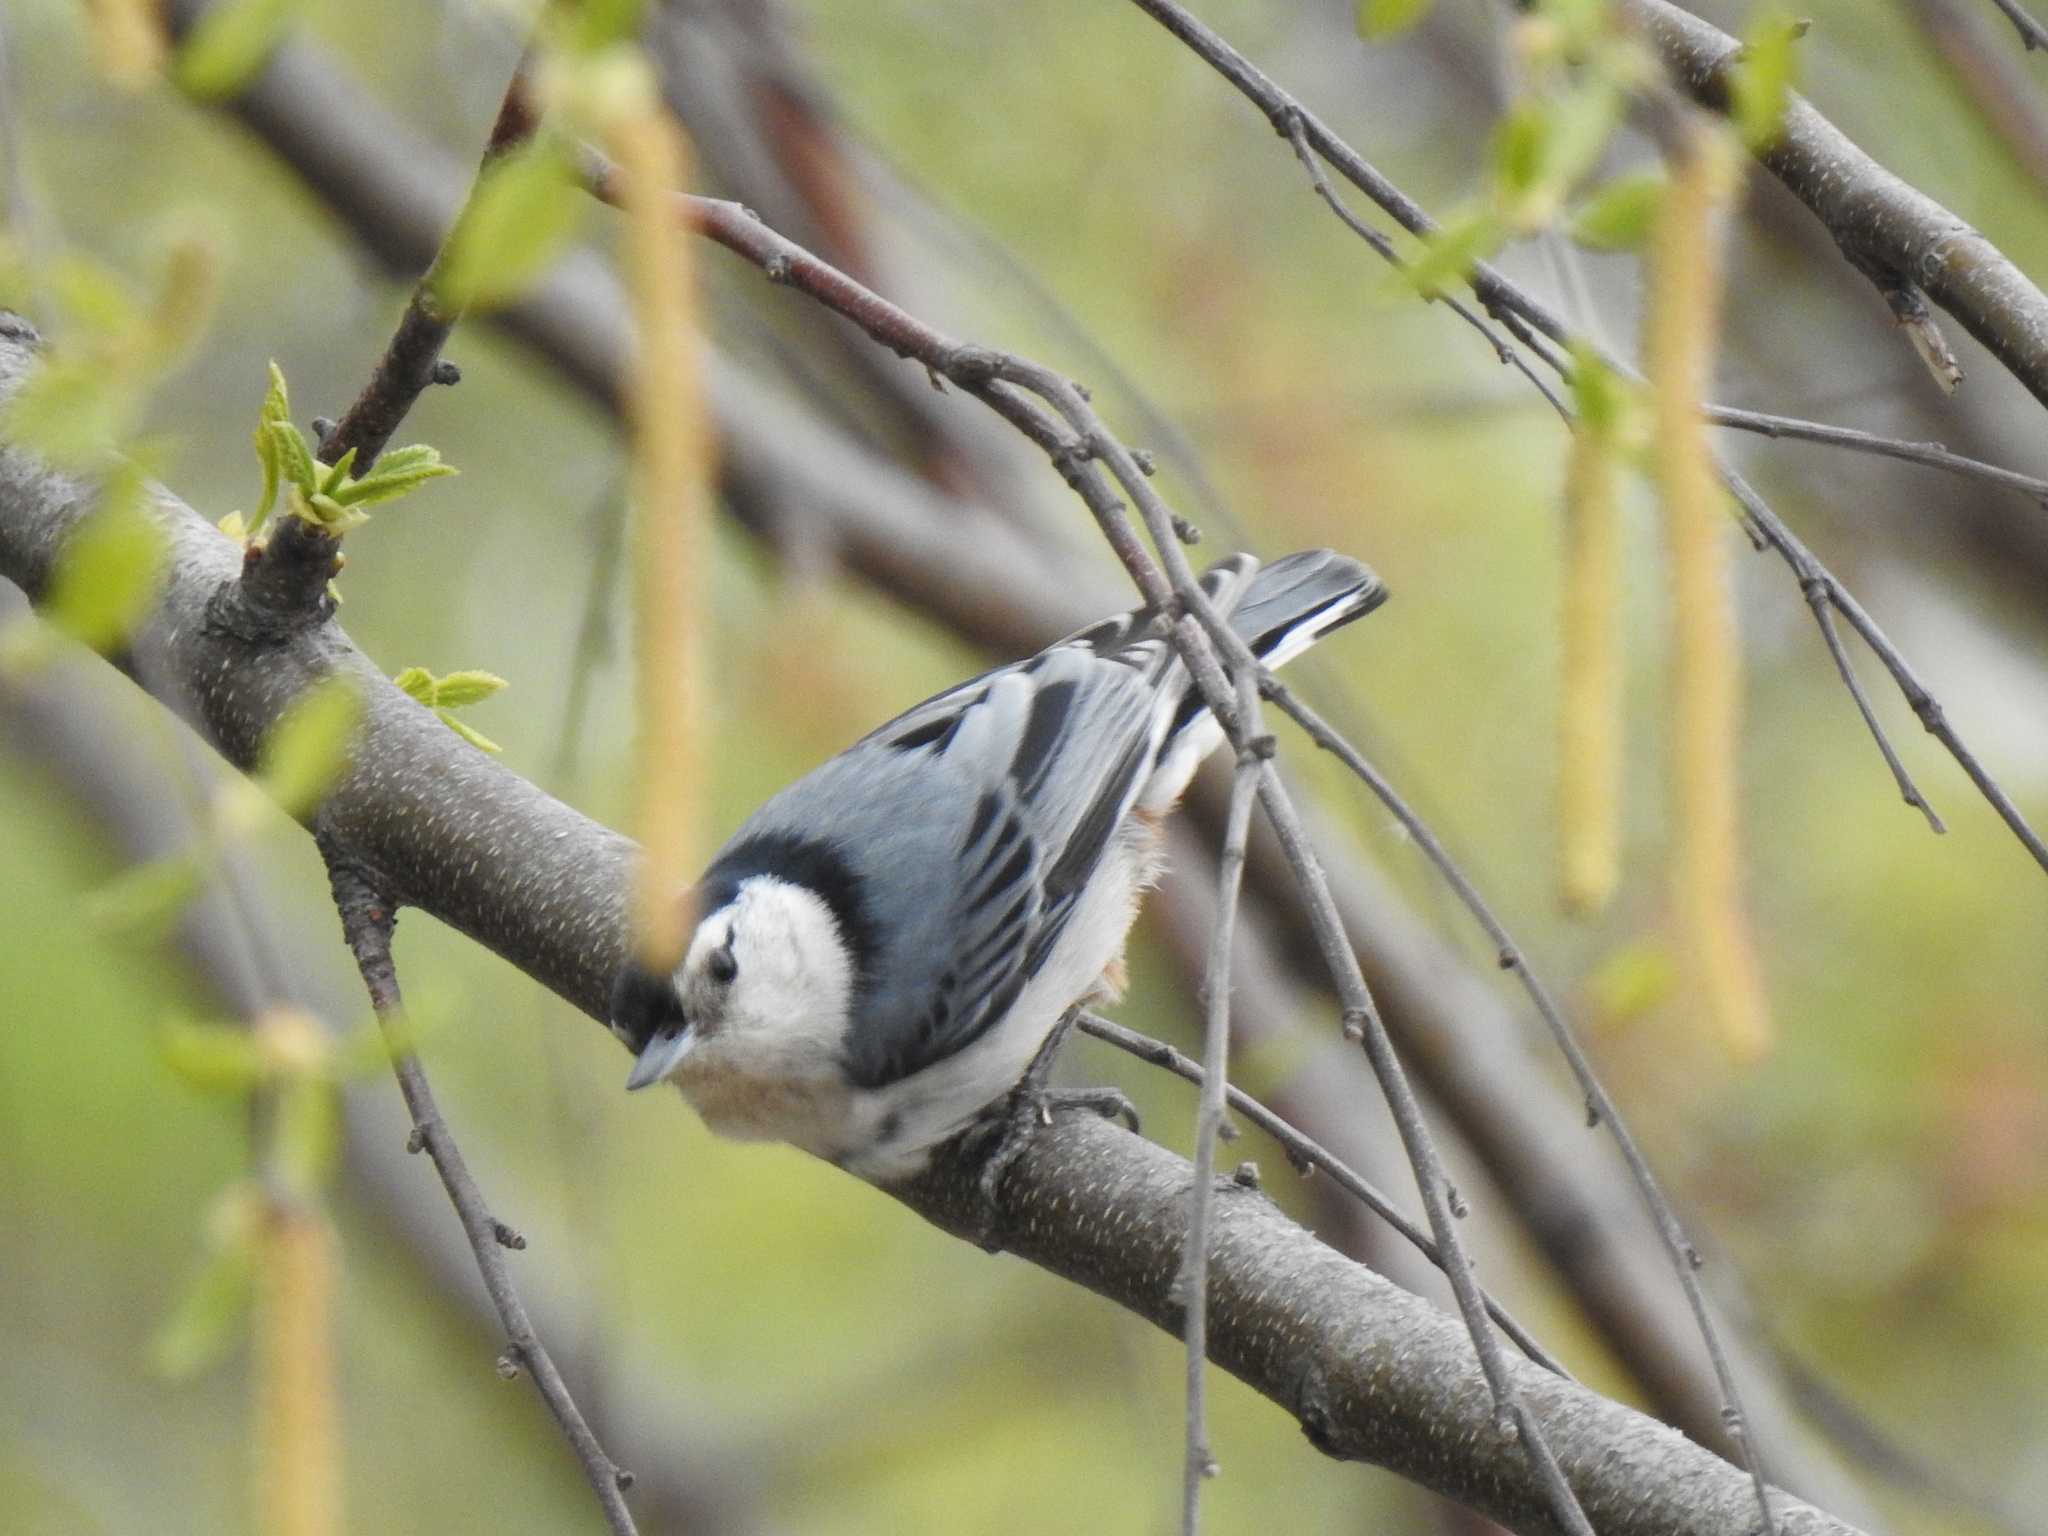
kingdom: Animalia
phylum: Chordata
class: Aves
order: Passeriformes
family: Sittidae
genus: Sitta
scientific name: Sitta carolinensis
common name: White-breasted nuthatch
